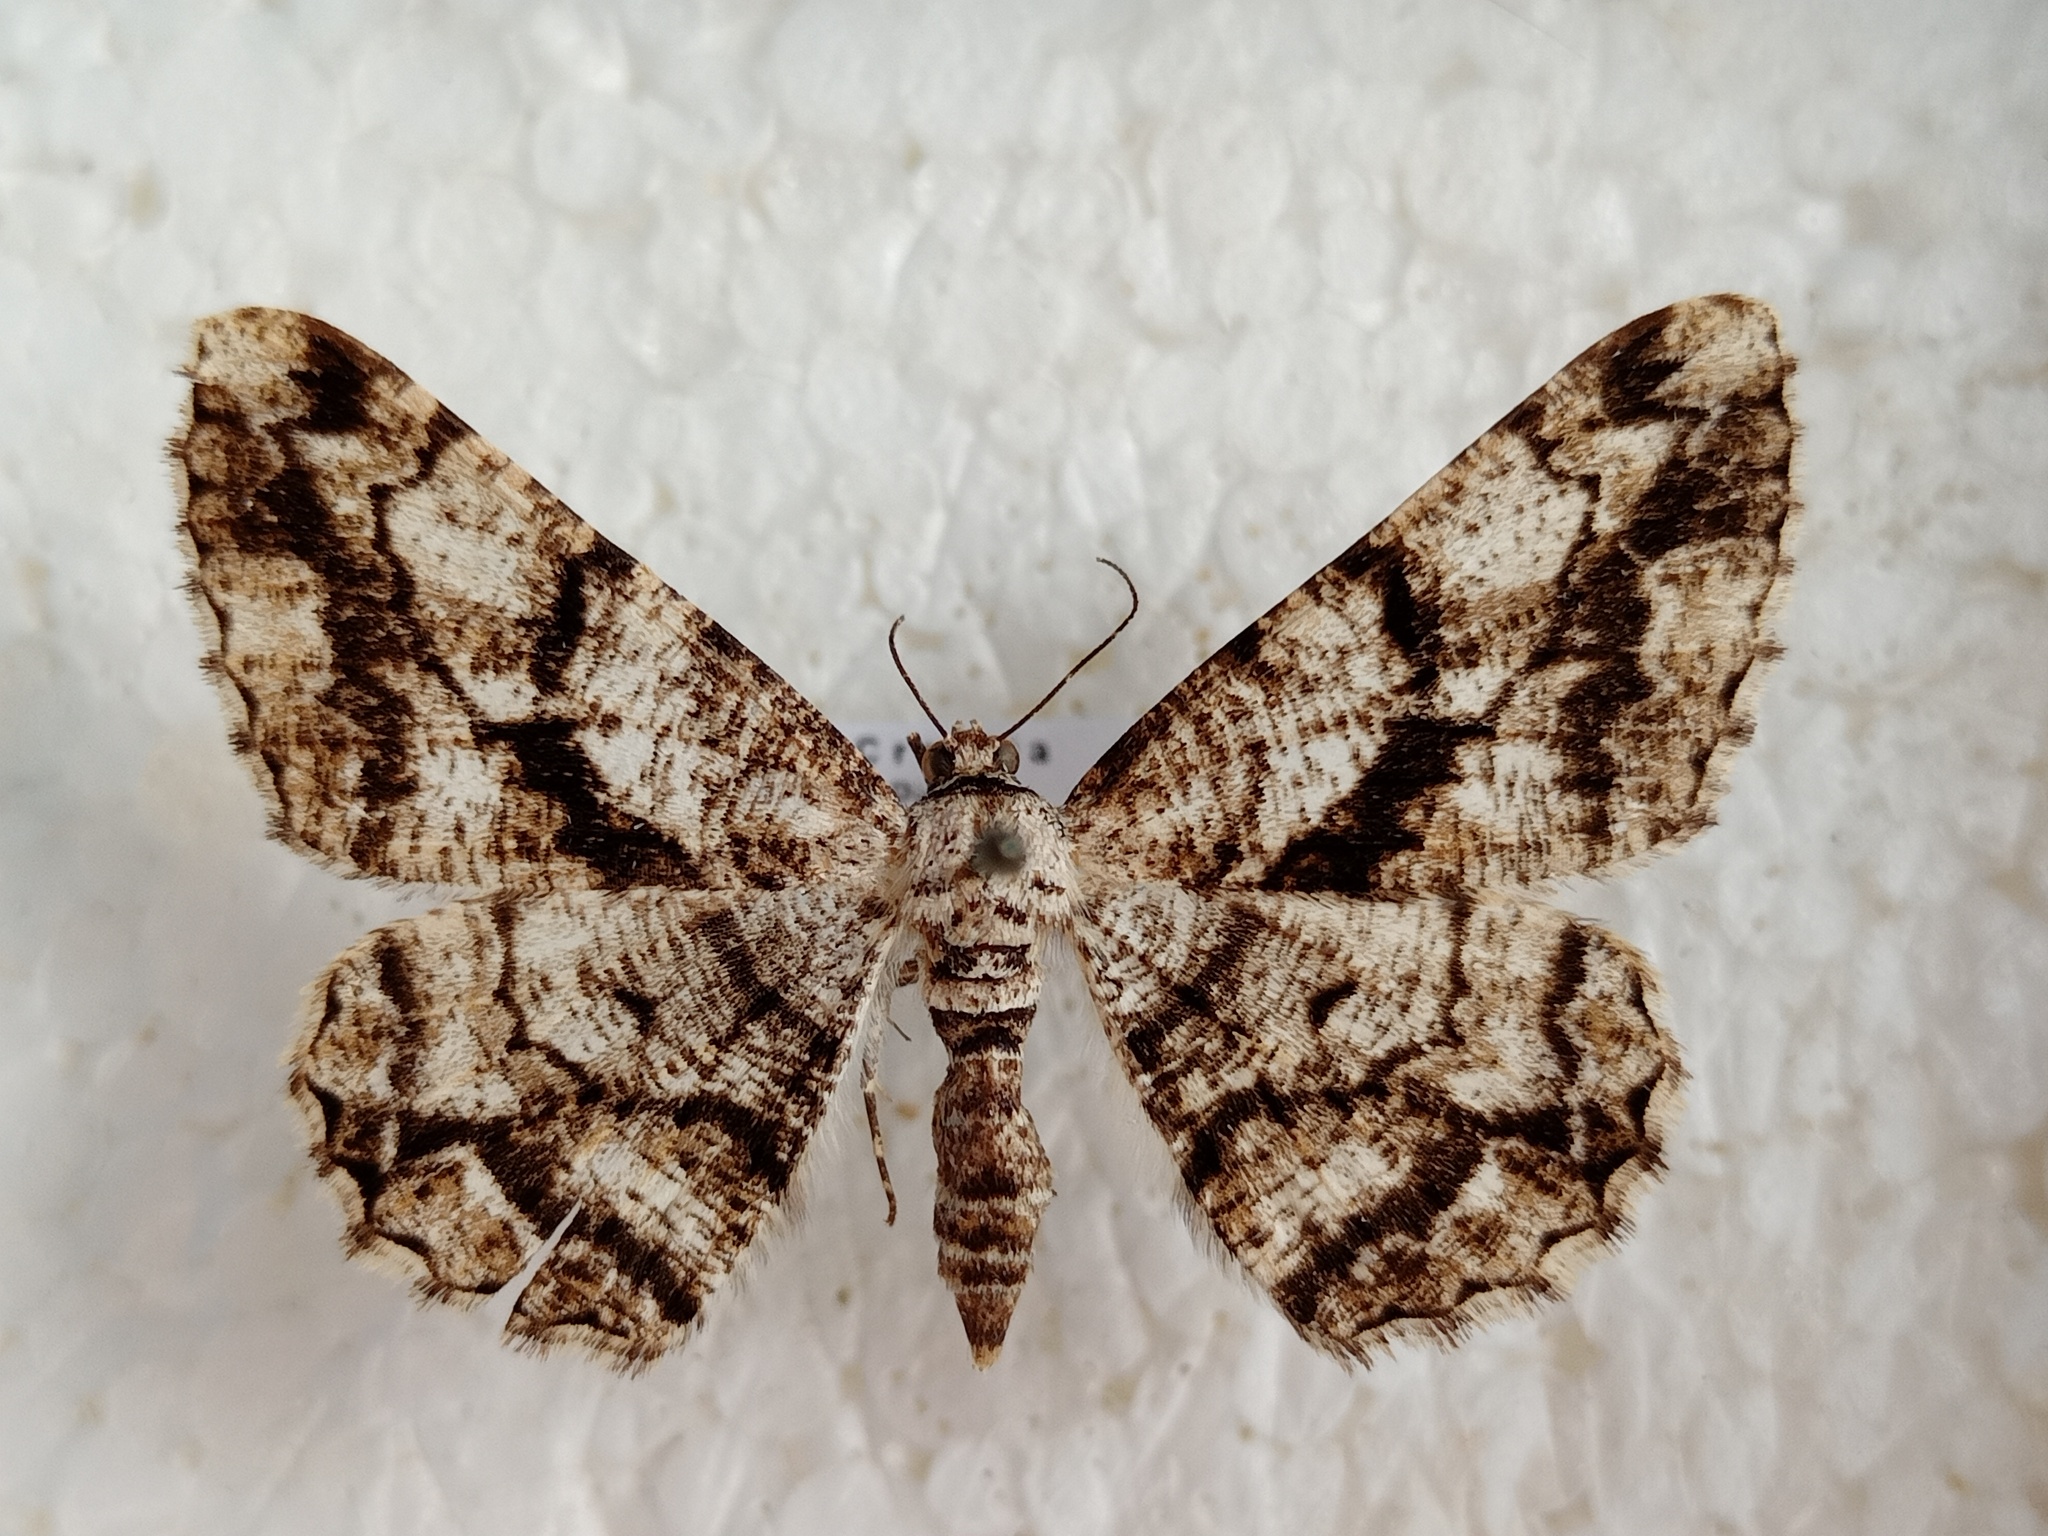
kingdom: Animalia
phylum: Arthropoda
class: Insecta
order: Lepidoptera
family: Geometridae
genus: Peribatodes
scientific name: Peribatodes umbraria
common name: Olive-tree beauty
